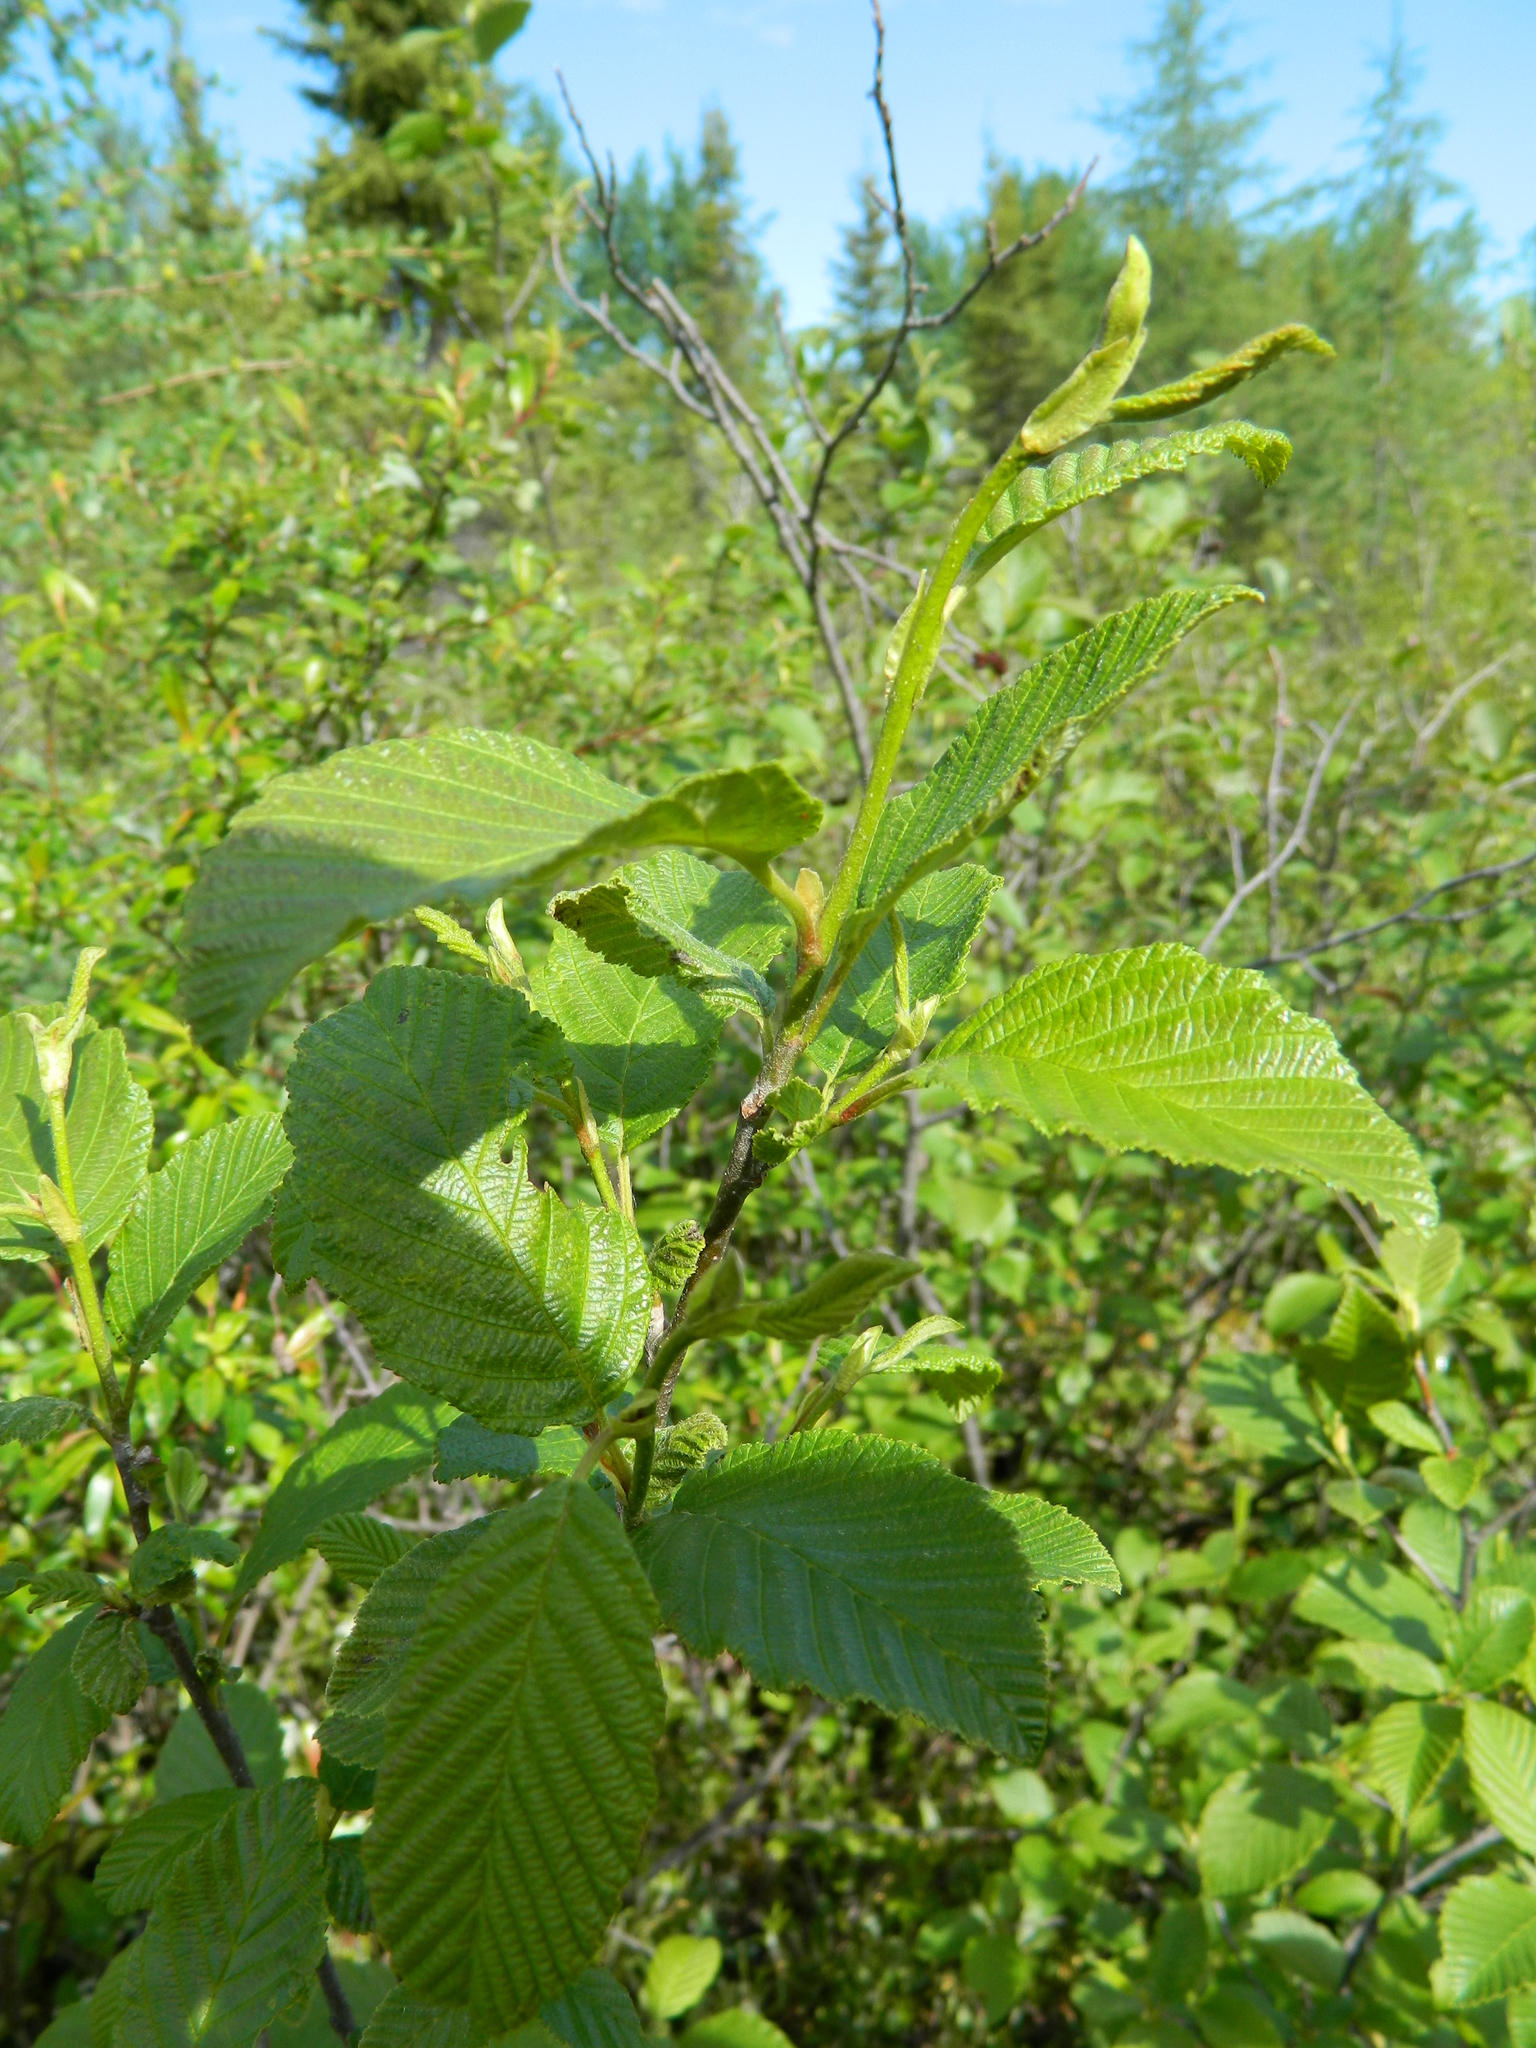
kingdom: Plantae
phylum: Tracheophyta
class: Magnoliopsida
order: Fagales
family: Betulaceae
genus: Alnus
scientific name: Alnus incana
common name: Grey alder
